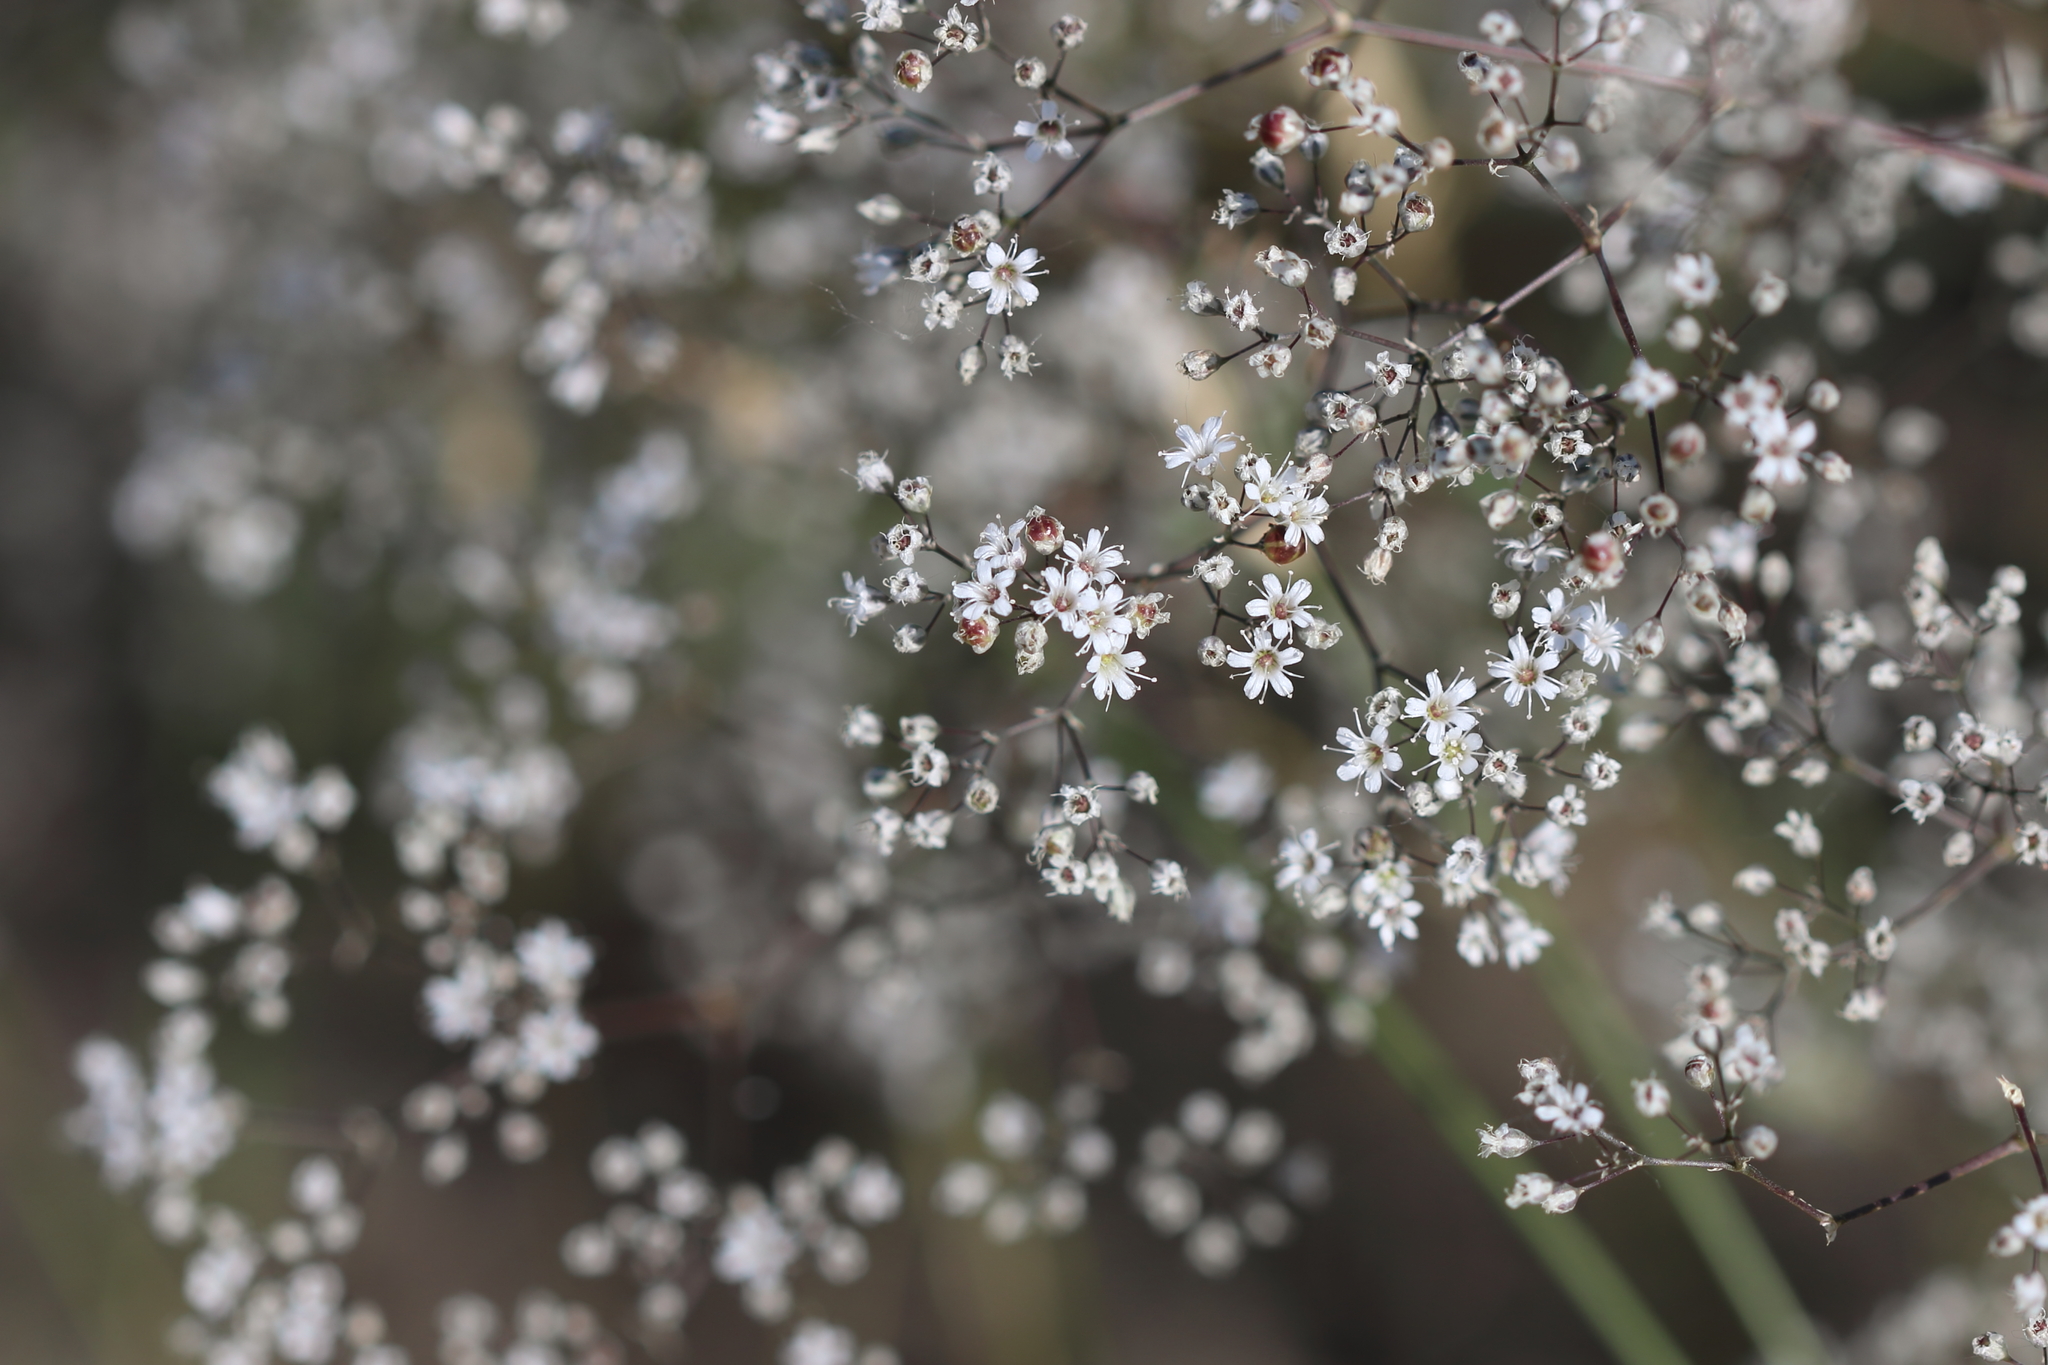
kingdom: Plantae
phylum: Tracheophyta
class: Magnoliopsida
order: Caryophyllales
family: Caryophyllaceae
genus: Gypsophila
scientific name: Gypsophila paniculata
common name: Baby's-breath
